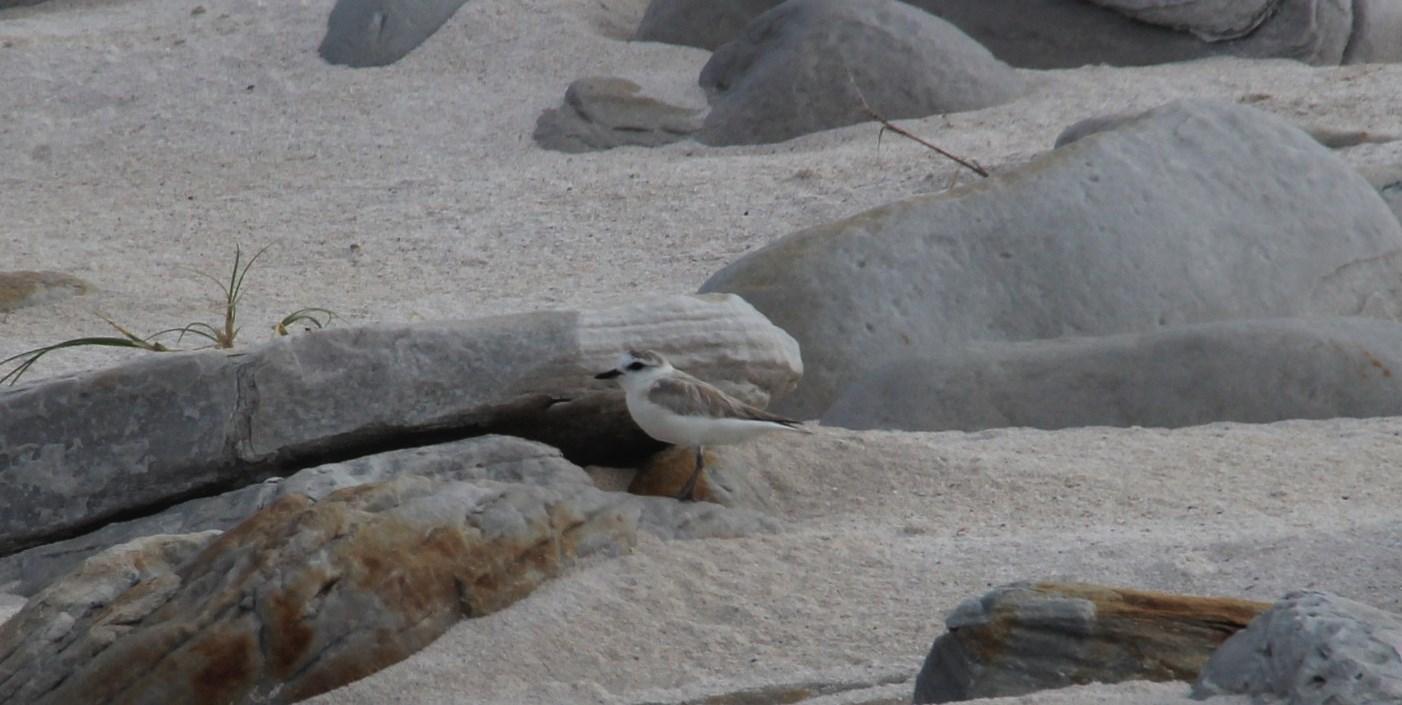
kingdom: Animalia
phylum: Chordata
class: Aves
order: Charadriiformes
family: Charadriidae
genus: Anarhynchus
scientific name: Anarhynchus
